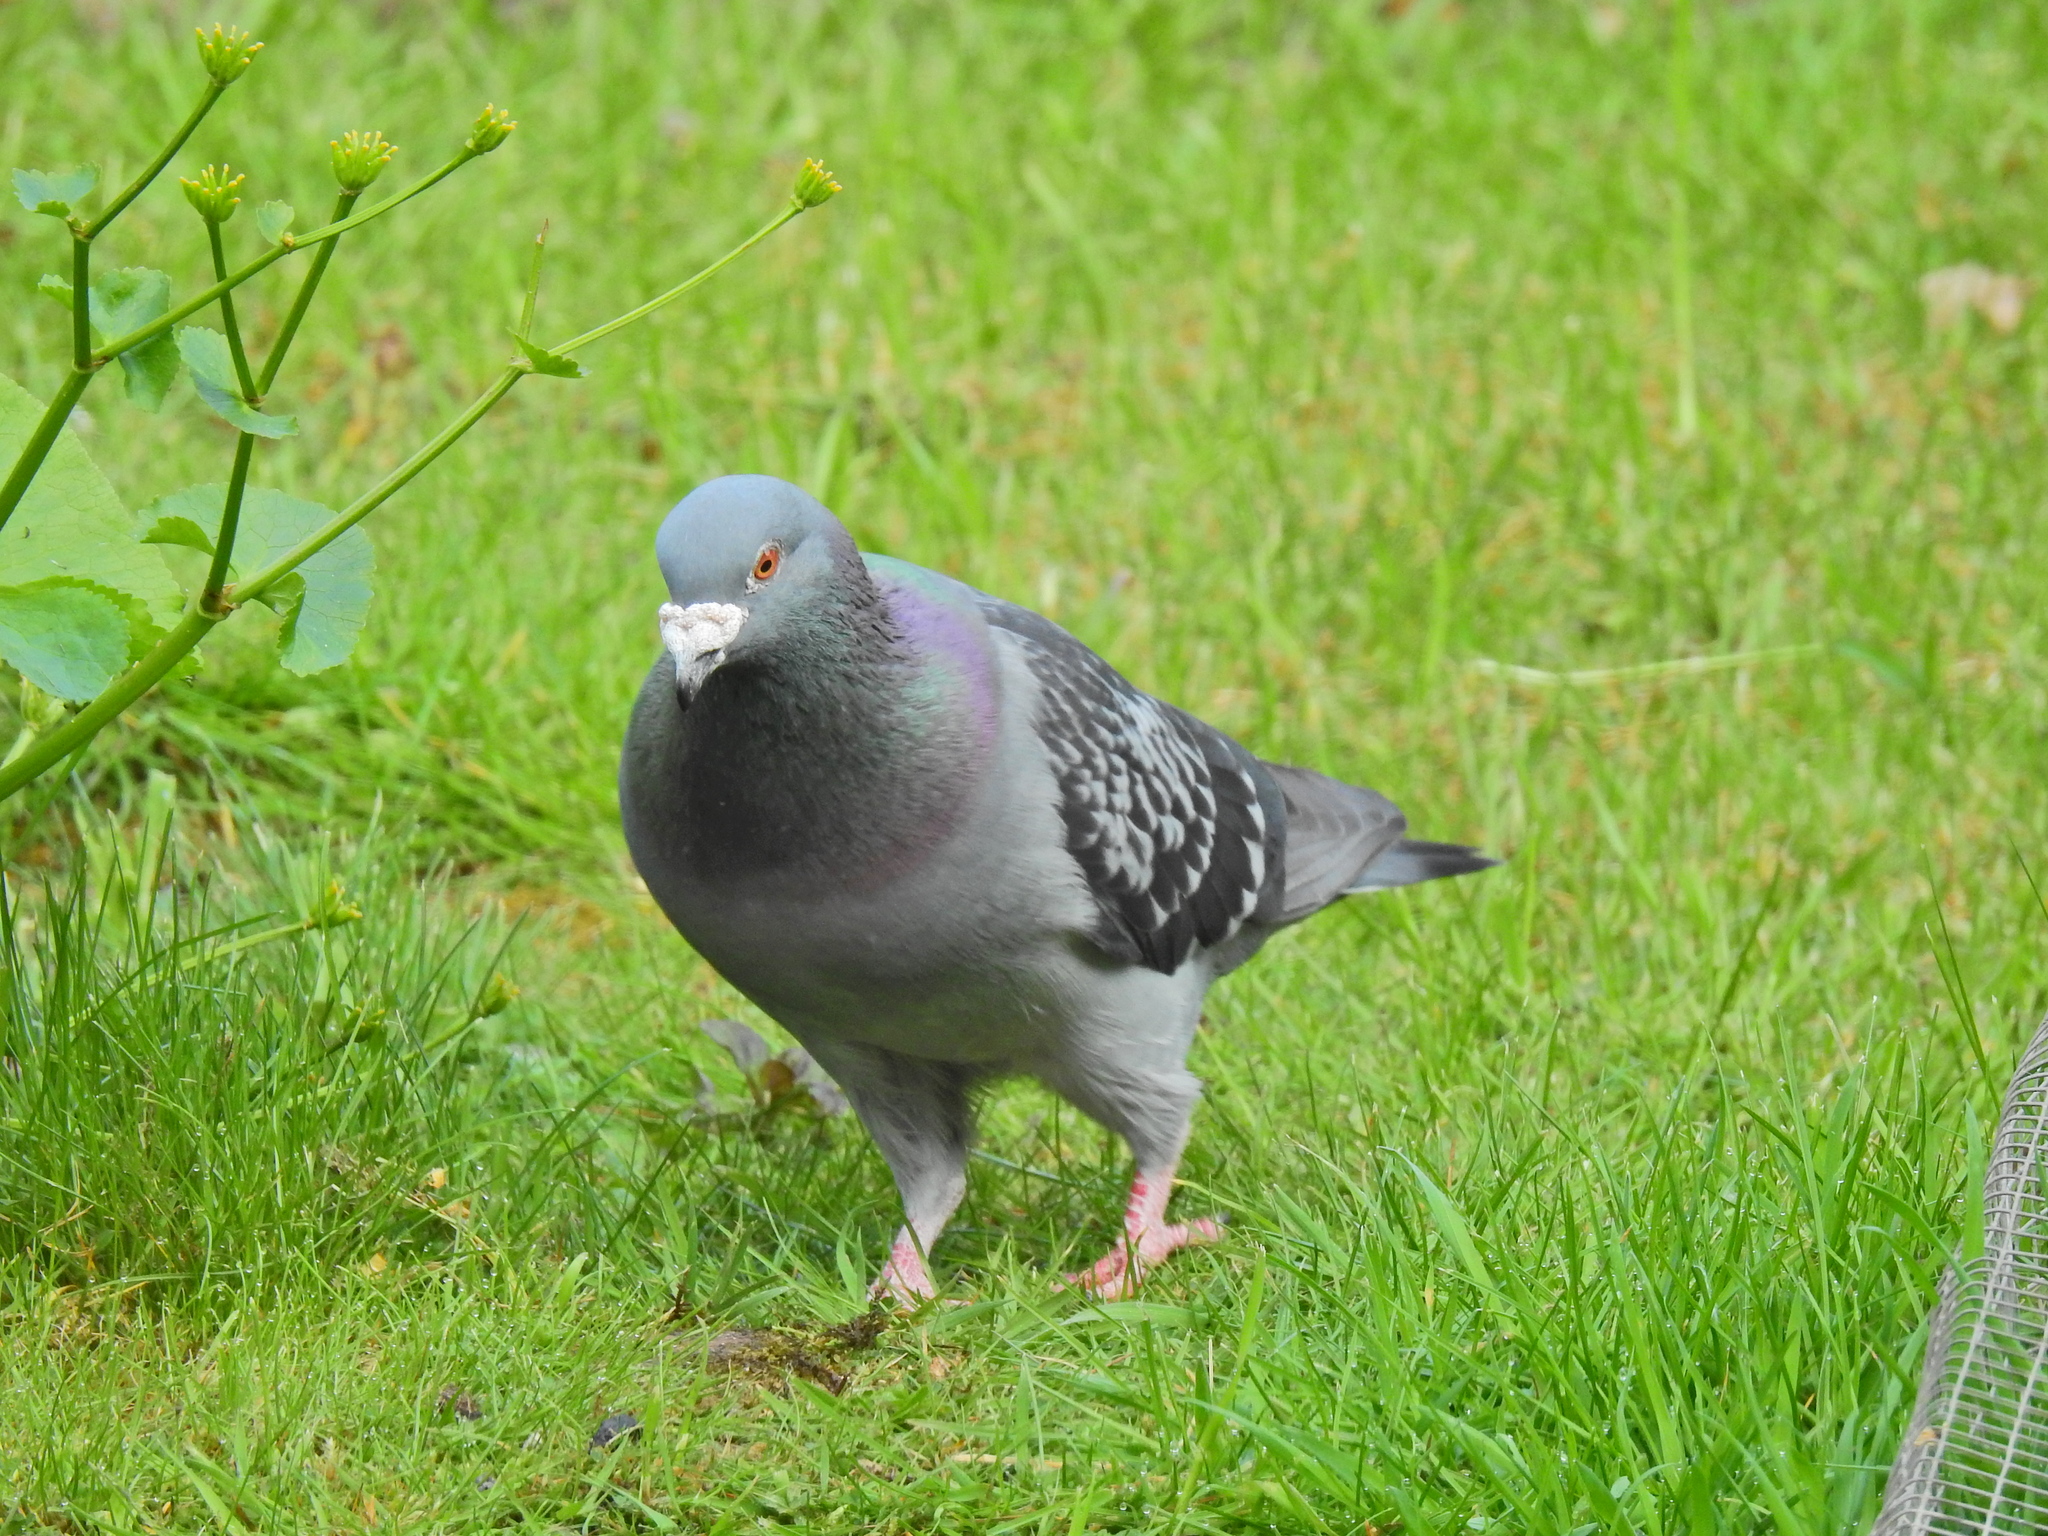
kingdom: Animalia
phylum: Chordata
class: Aves
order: Columbiformes
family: Columbidae
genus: Columba
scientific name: Columba livia
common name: Rock pigeon
